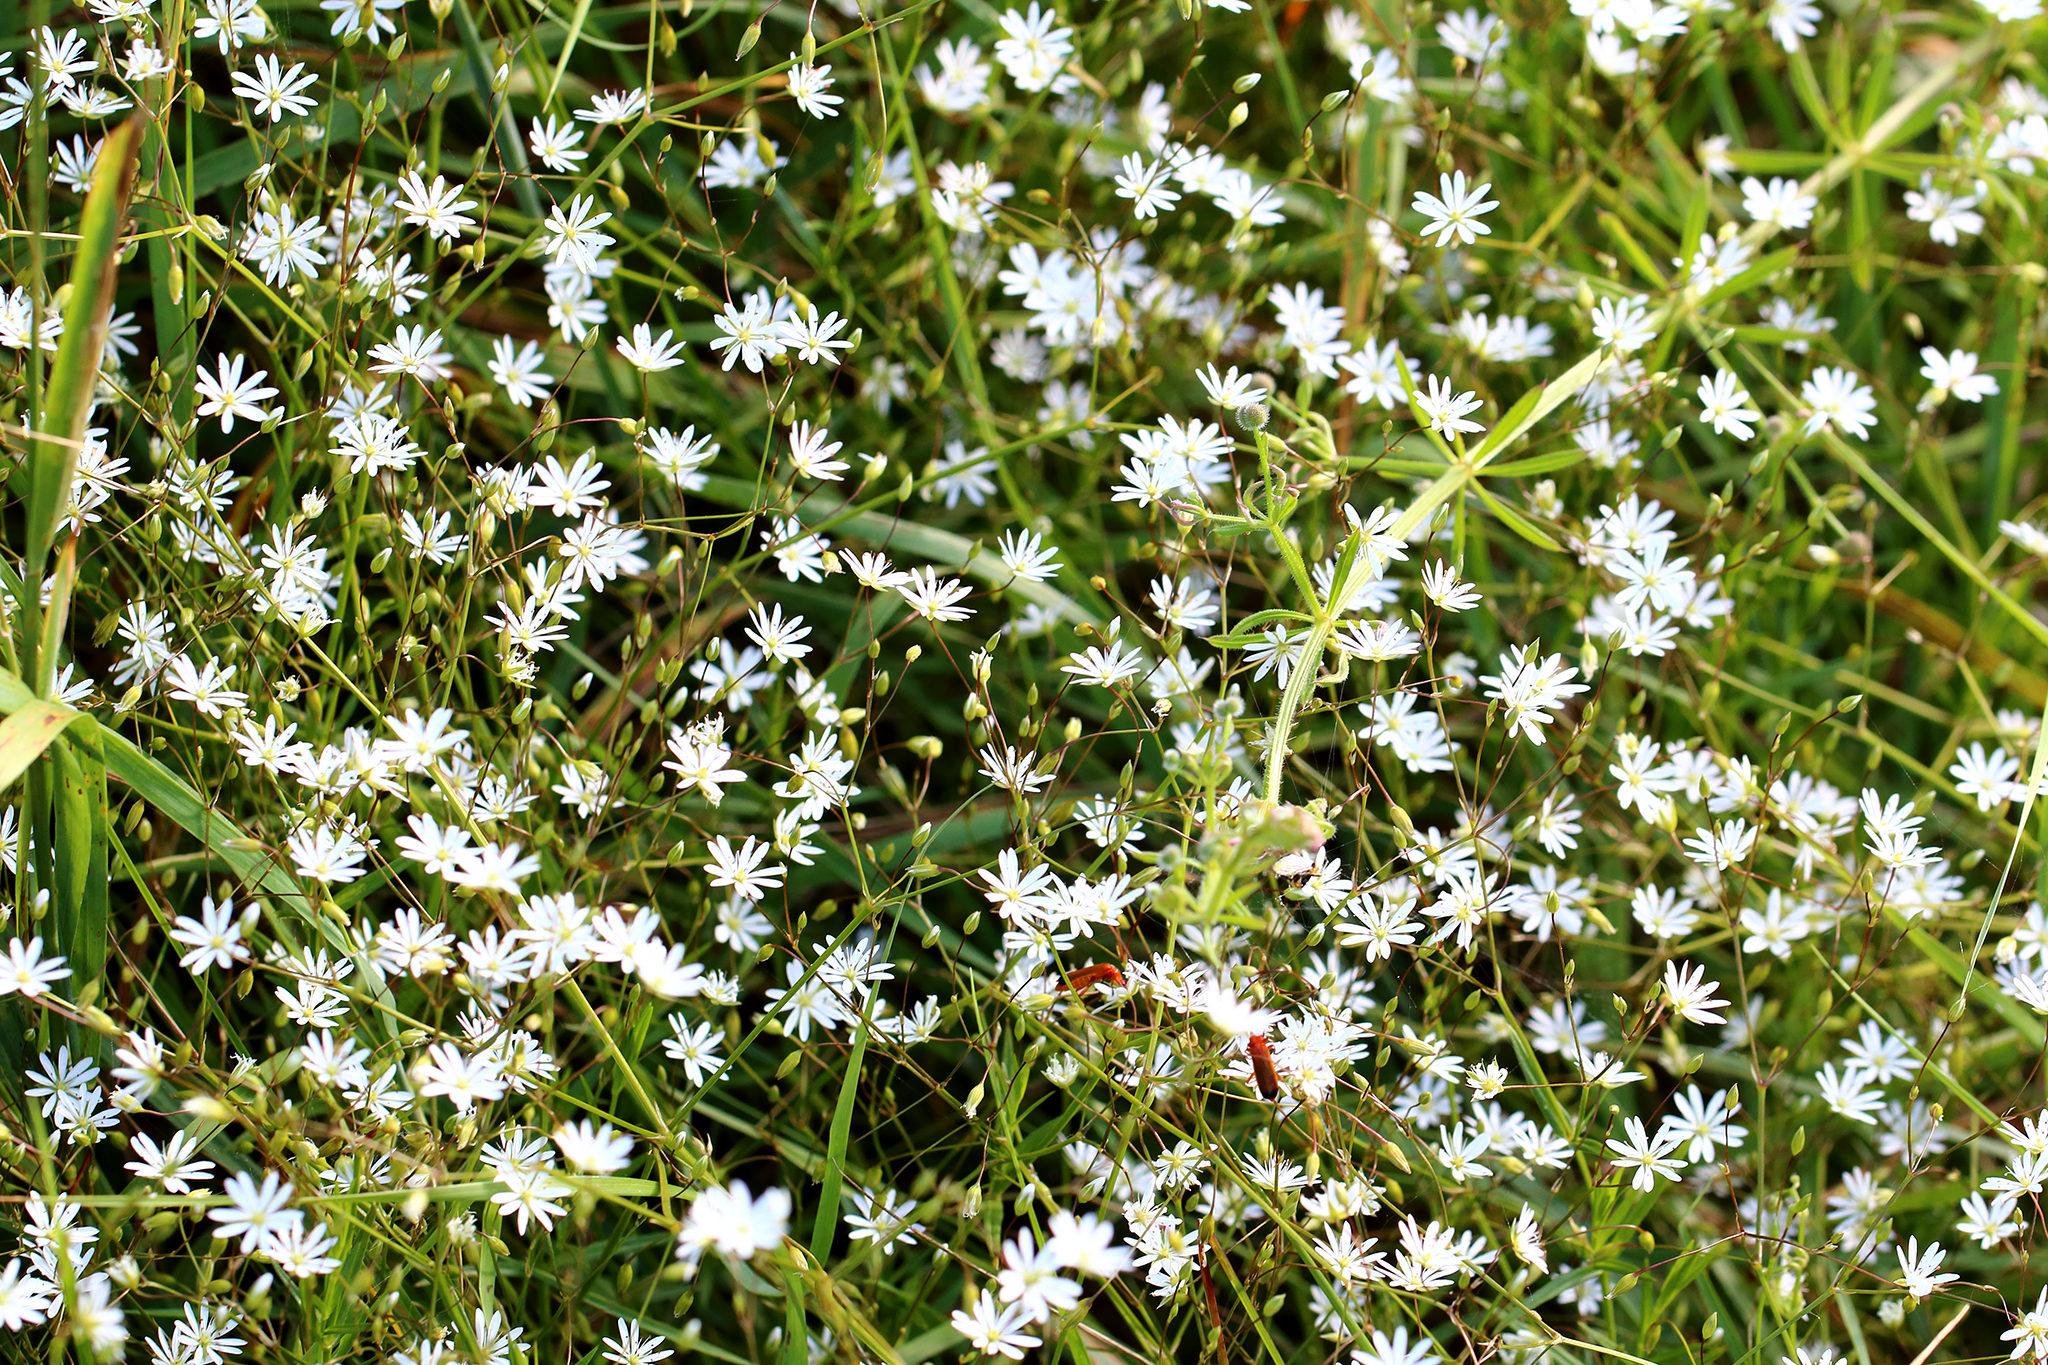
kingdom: Plantae
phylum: Tracheophyta
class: Magnoliopsida
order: Caryophyllales
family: Caryophyllaceae
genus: Stellaria
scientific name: Stellaria graminea
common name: Grass-like starwort
